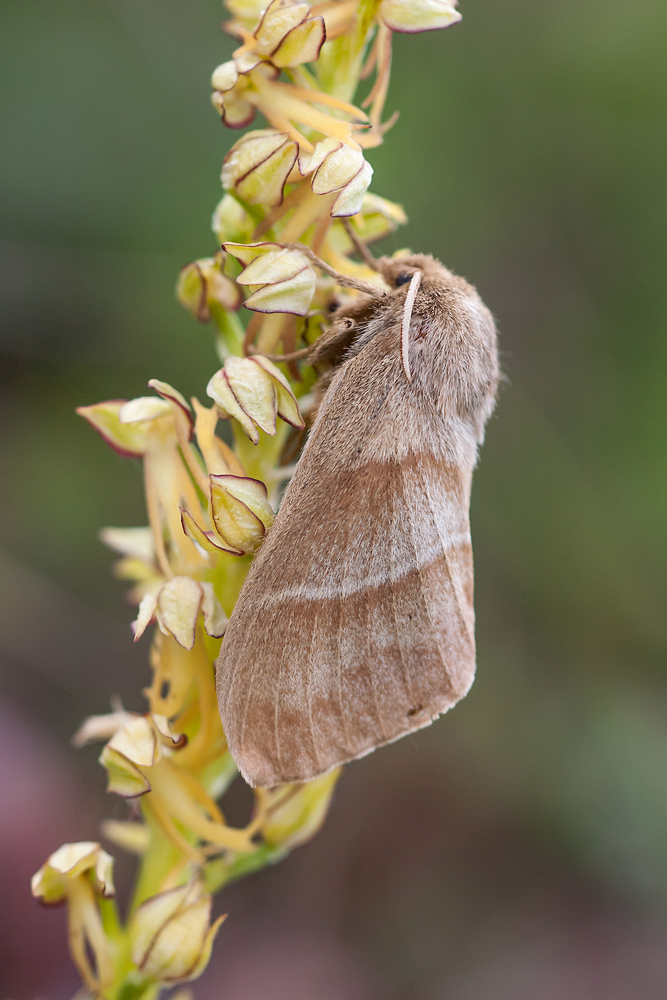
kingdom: Animalia
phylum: Arthropoda
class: Insecta
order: Lepidoptera
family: Lasiocampidae
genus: Macrothylacia
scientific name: Macrothylacia rubi
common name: Fox moth
